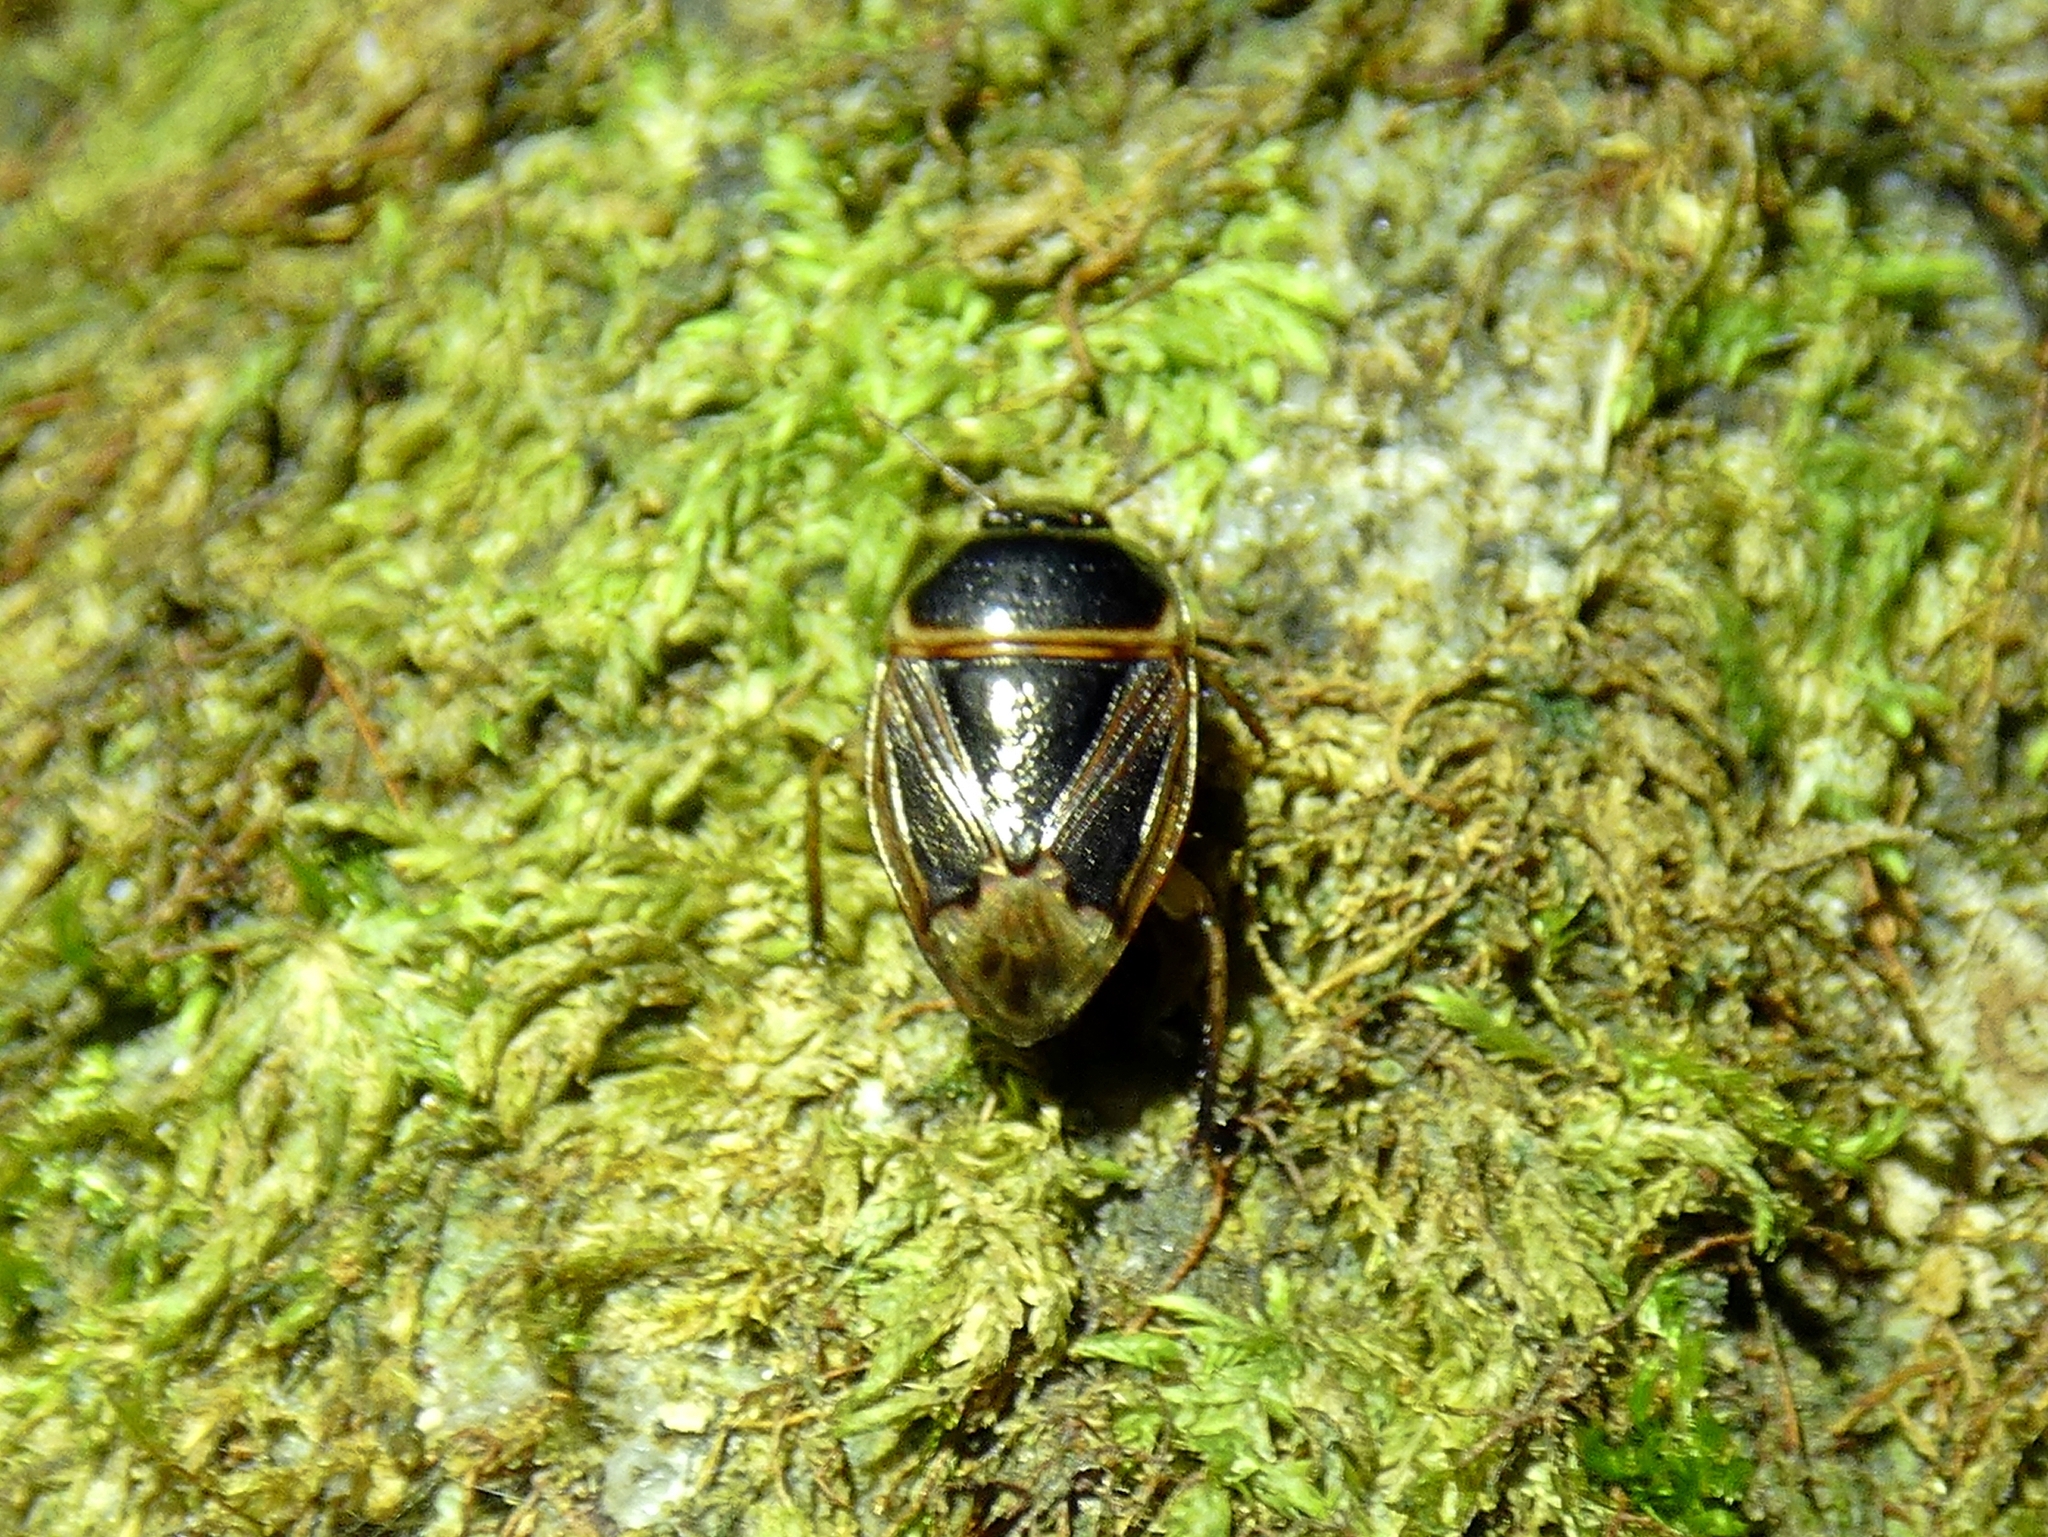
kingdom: Animalia
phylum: Arthropoda
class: Insecta
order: Hemiptera
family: Cydnidae
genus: Macroscytus
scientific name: Macroscytus
